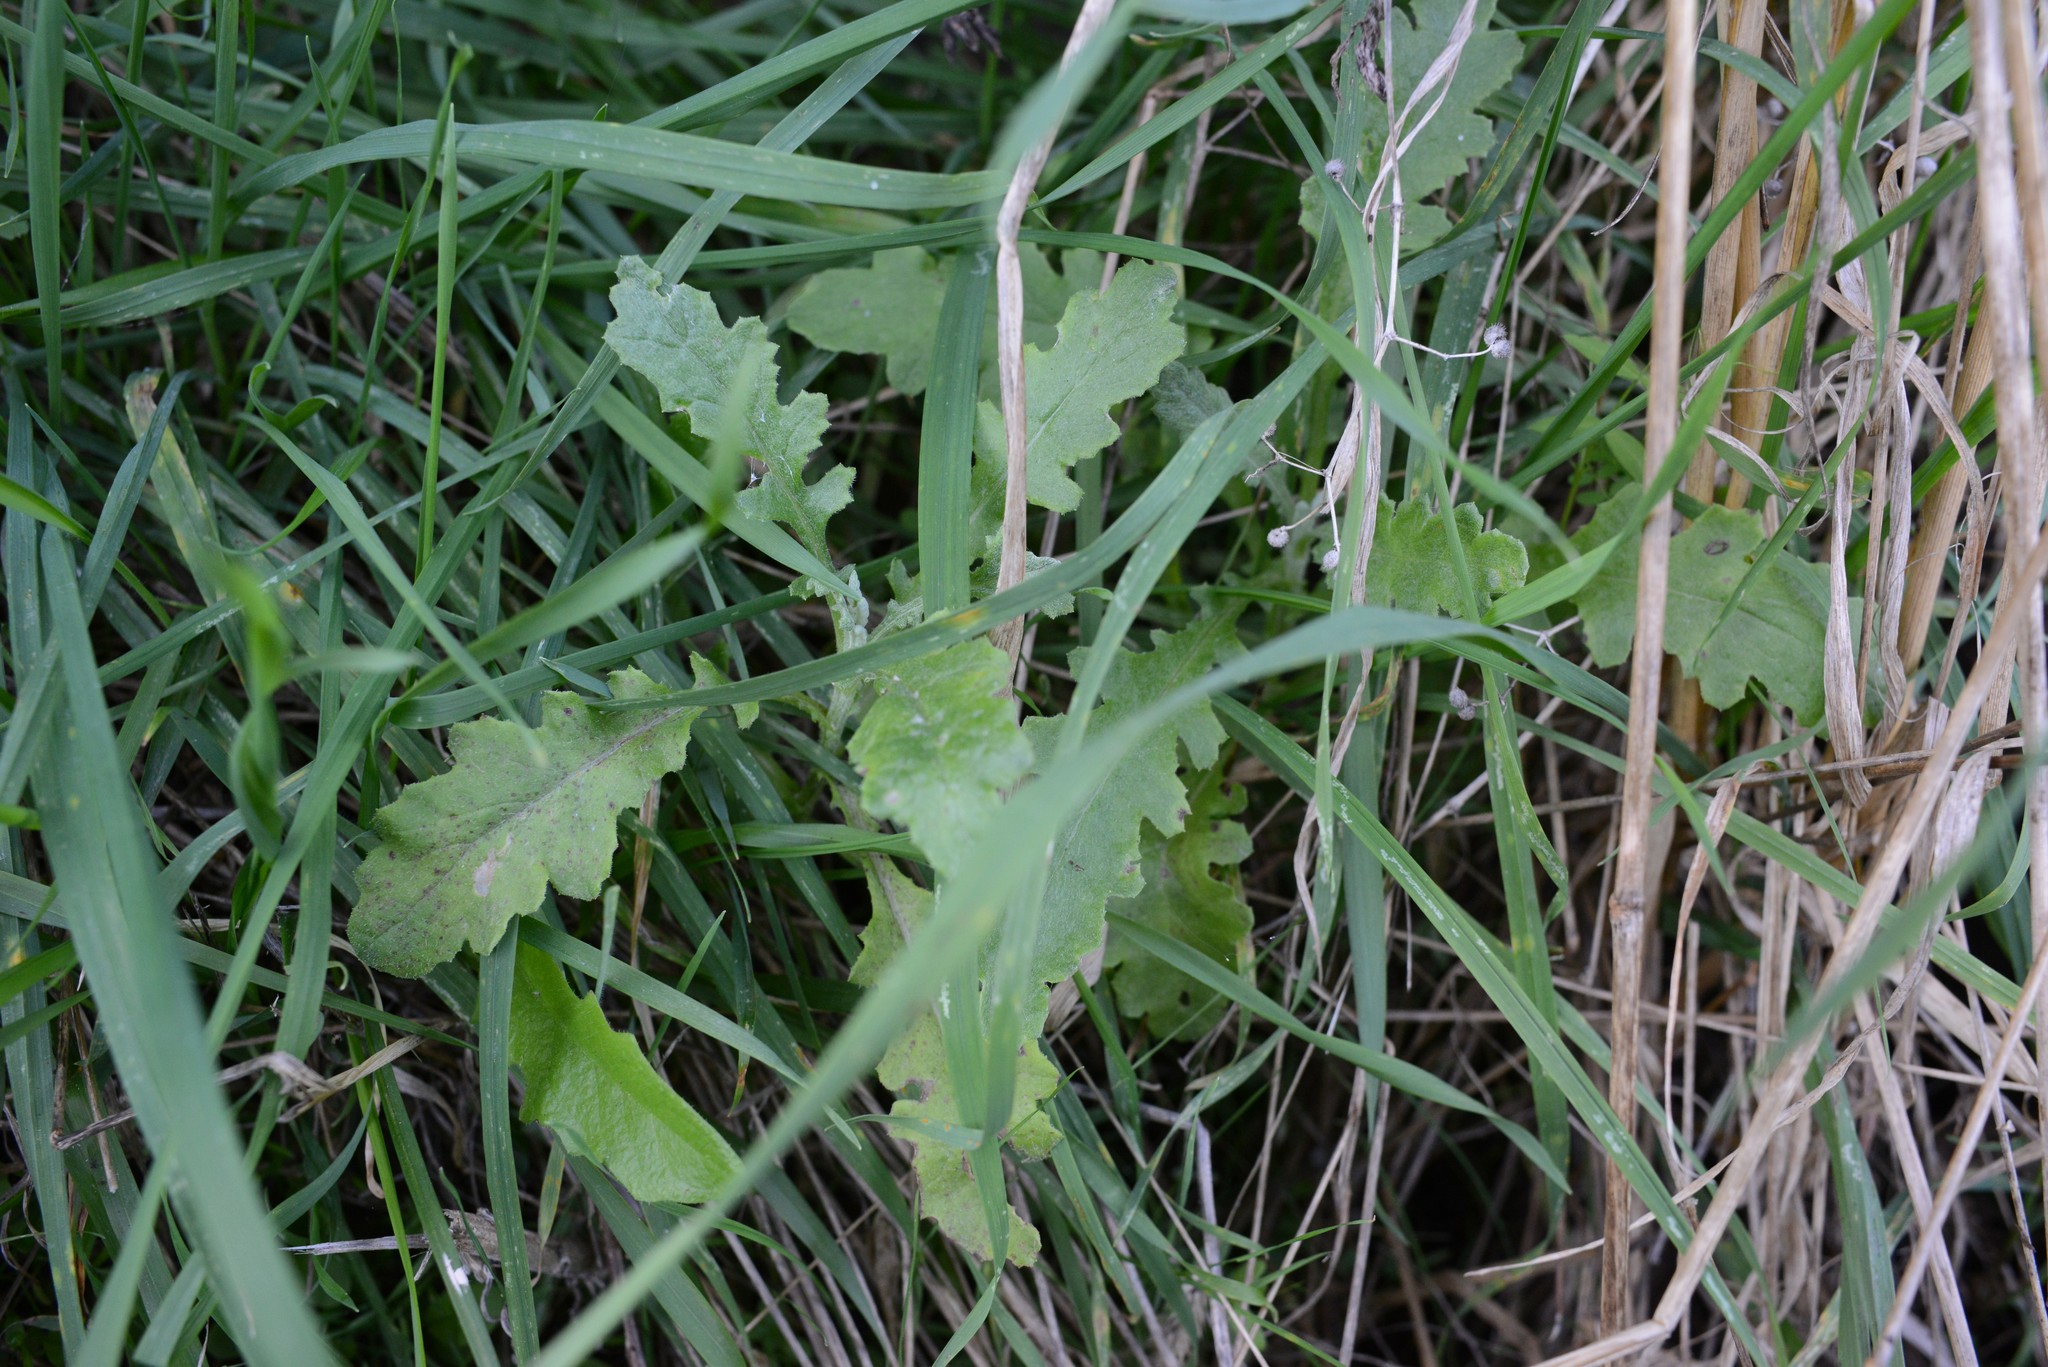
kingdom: Plantae
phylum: Tracheophyta
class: Magnoliopsida
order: Asterales
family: Asteraceae
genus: Senecio
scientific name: Senecio glomeratus
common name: Cutleaf burnweed
